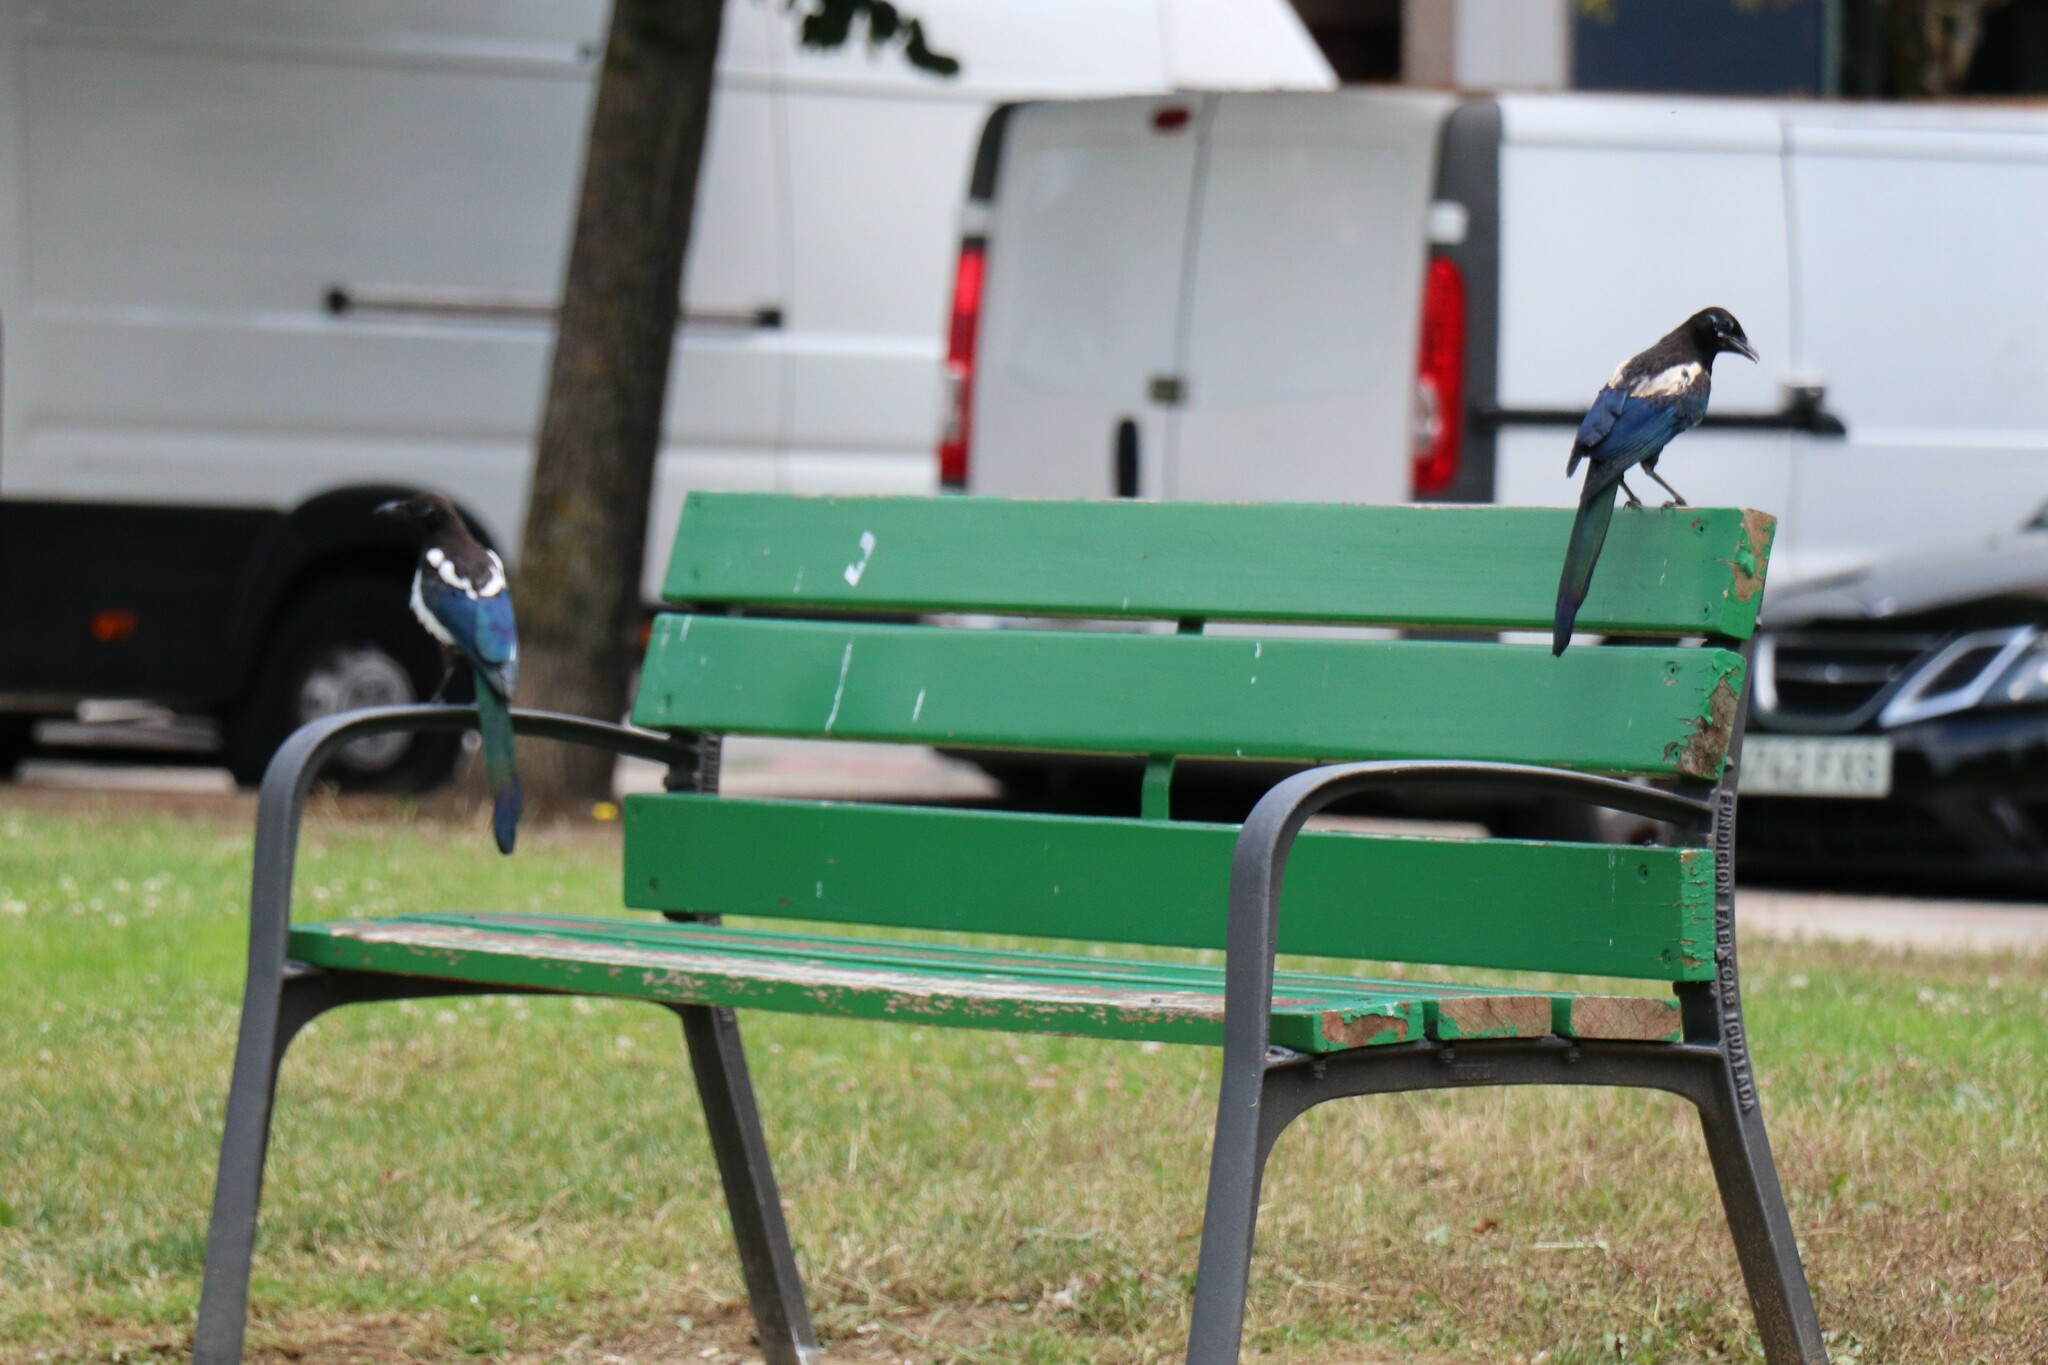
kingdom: Animalia
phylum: Chordata
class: Aves
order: Passeriformes
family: Corvidae
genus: Pica
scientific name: Pica pica
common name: Eurasian magpie
